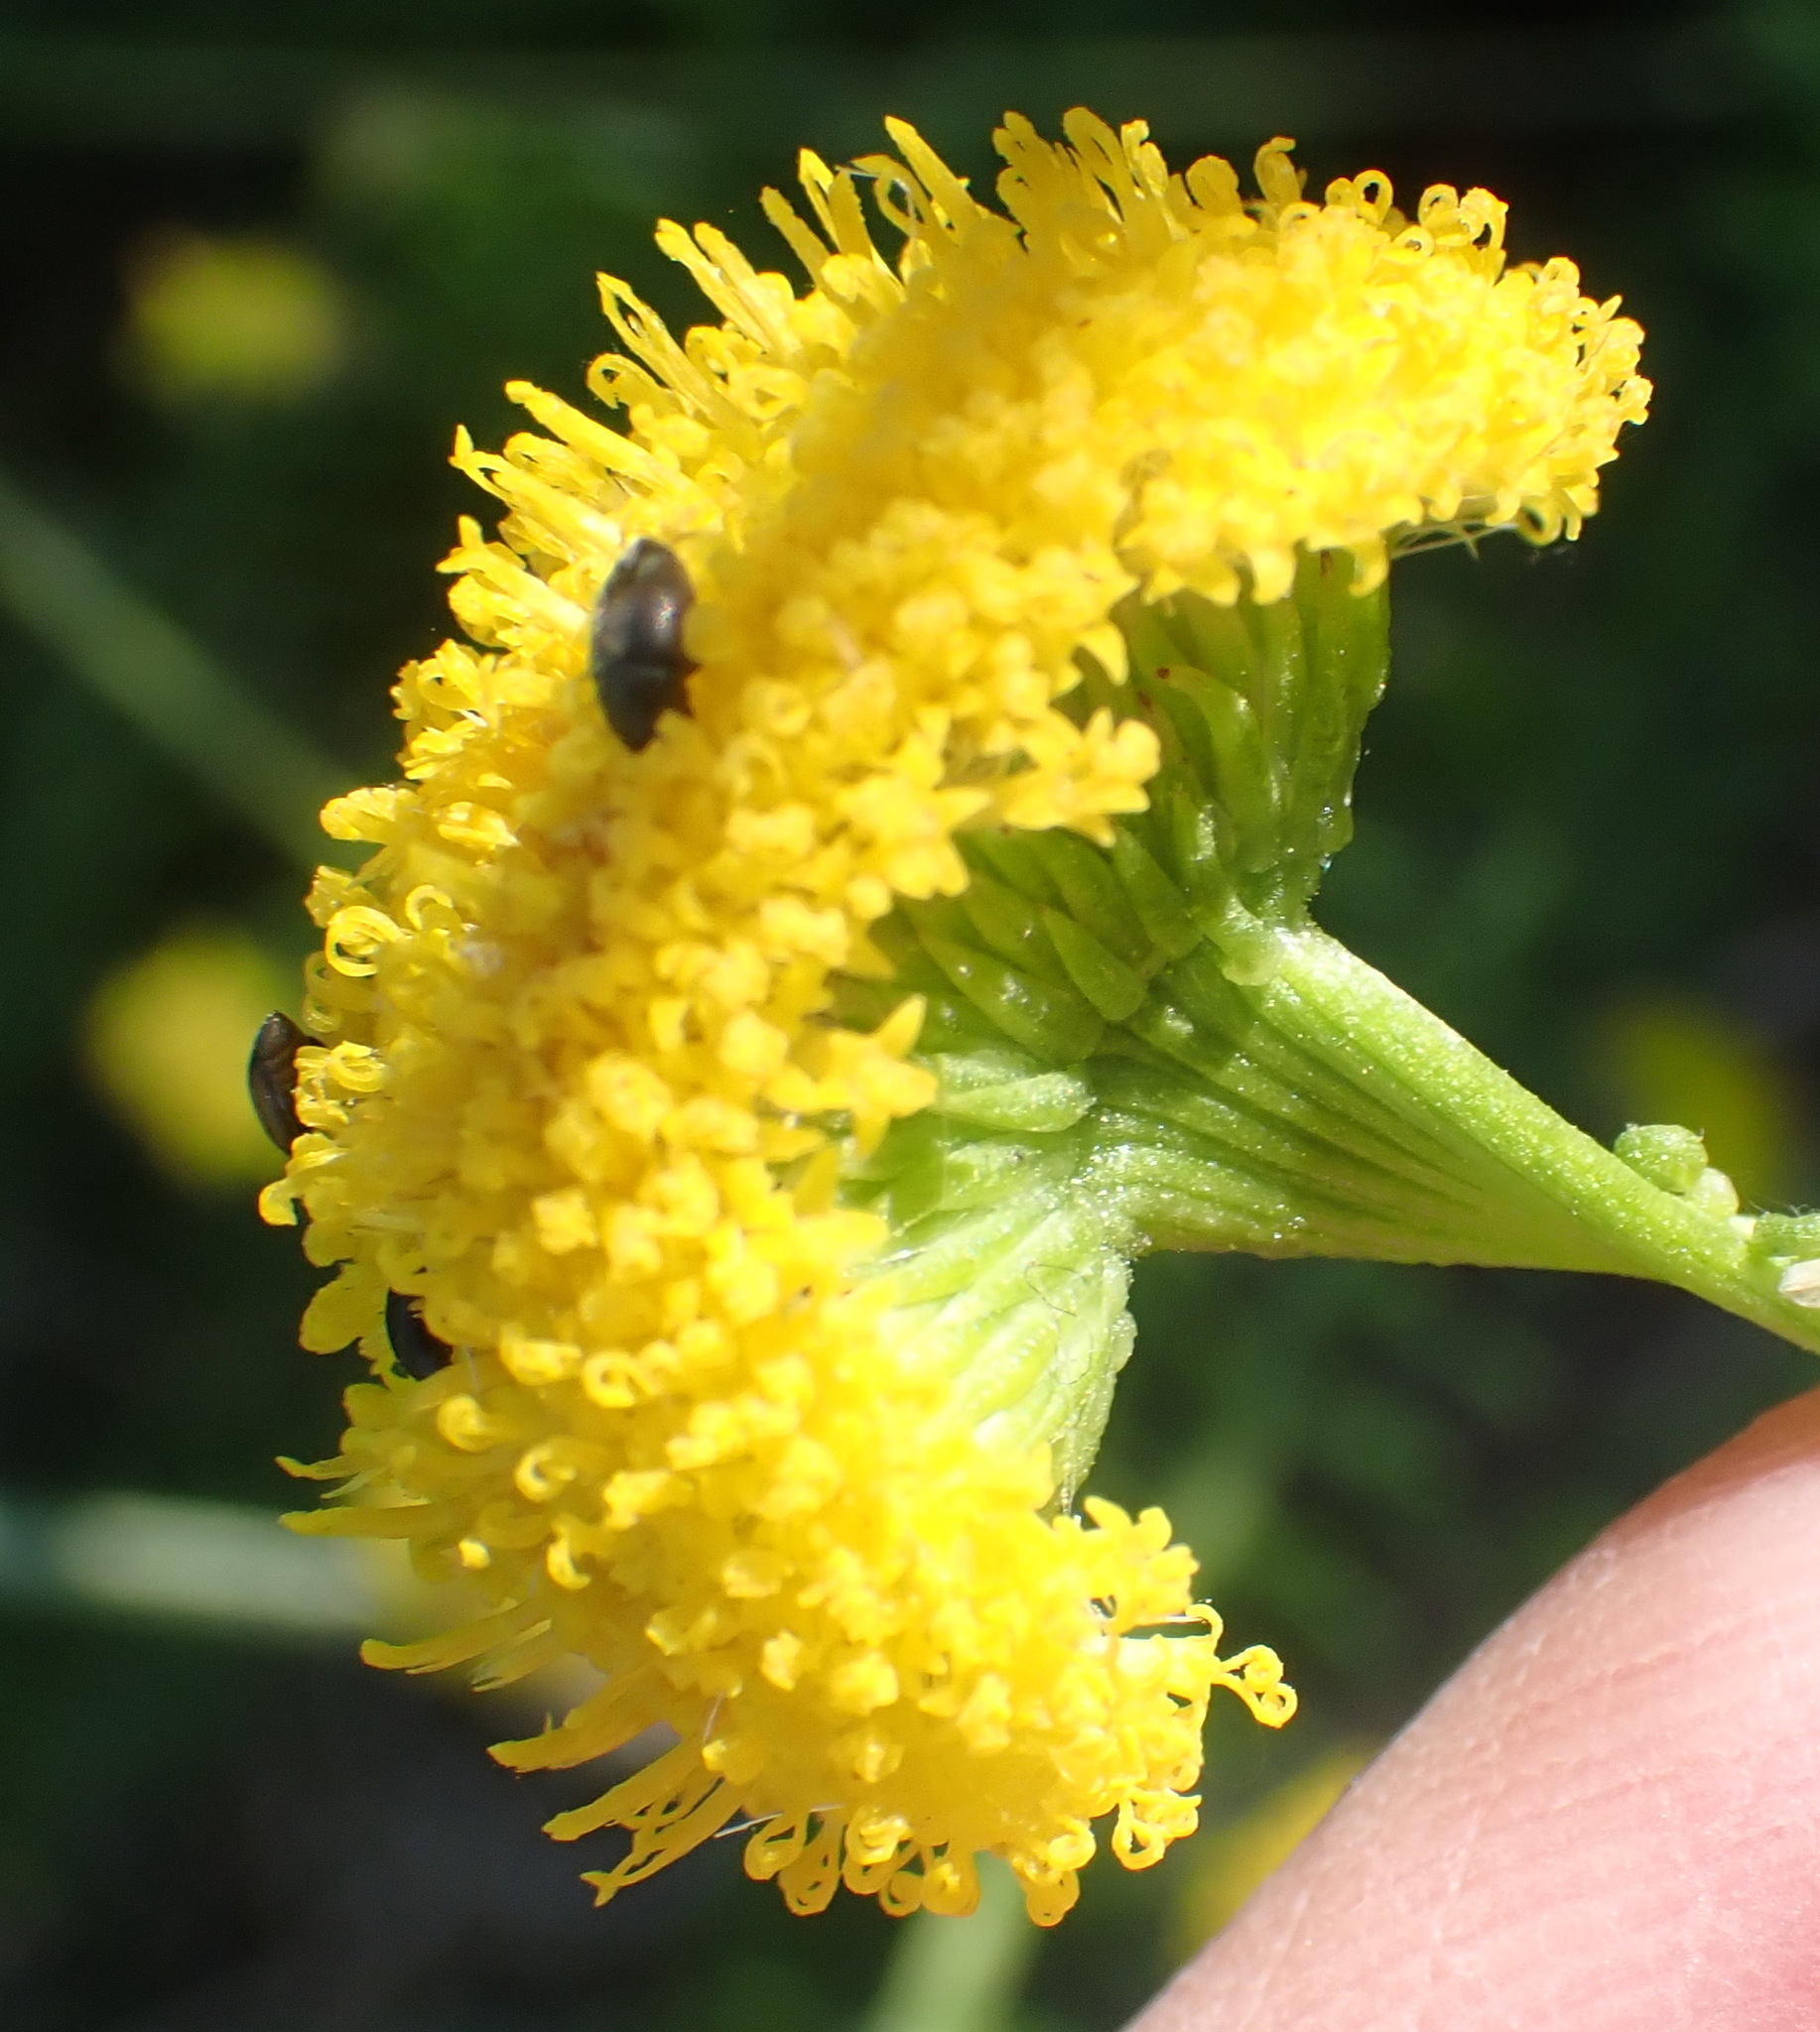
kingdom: Plantae
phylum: Tracheophyta
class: Magnoliopsida
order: Asterales
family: Asteraceae
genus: Chrysocoma
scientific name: Chrysocoma ciliata
